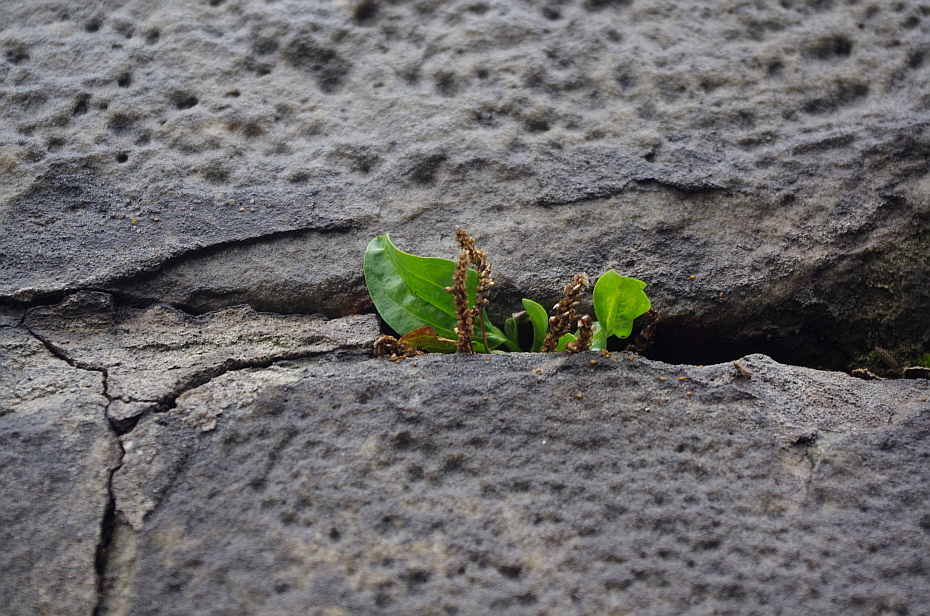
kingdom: Plantae
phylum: Tracheophyta
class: Magnoliopsida
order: Lamiales
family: Plantaginaceae
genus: Plantago
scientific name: Plantago major
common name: Common plantain
